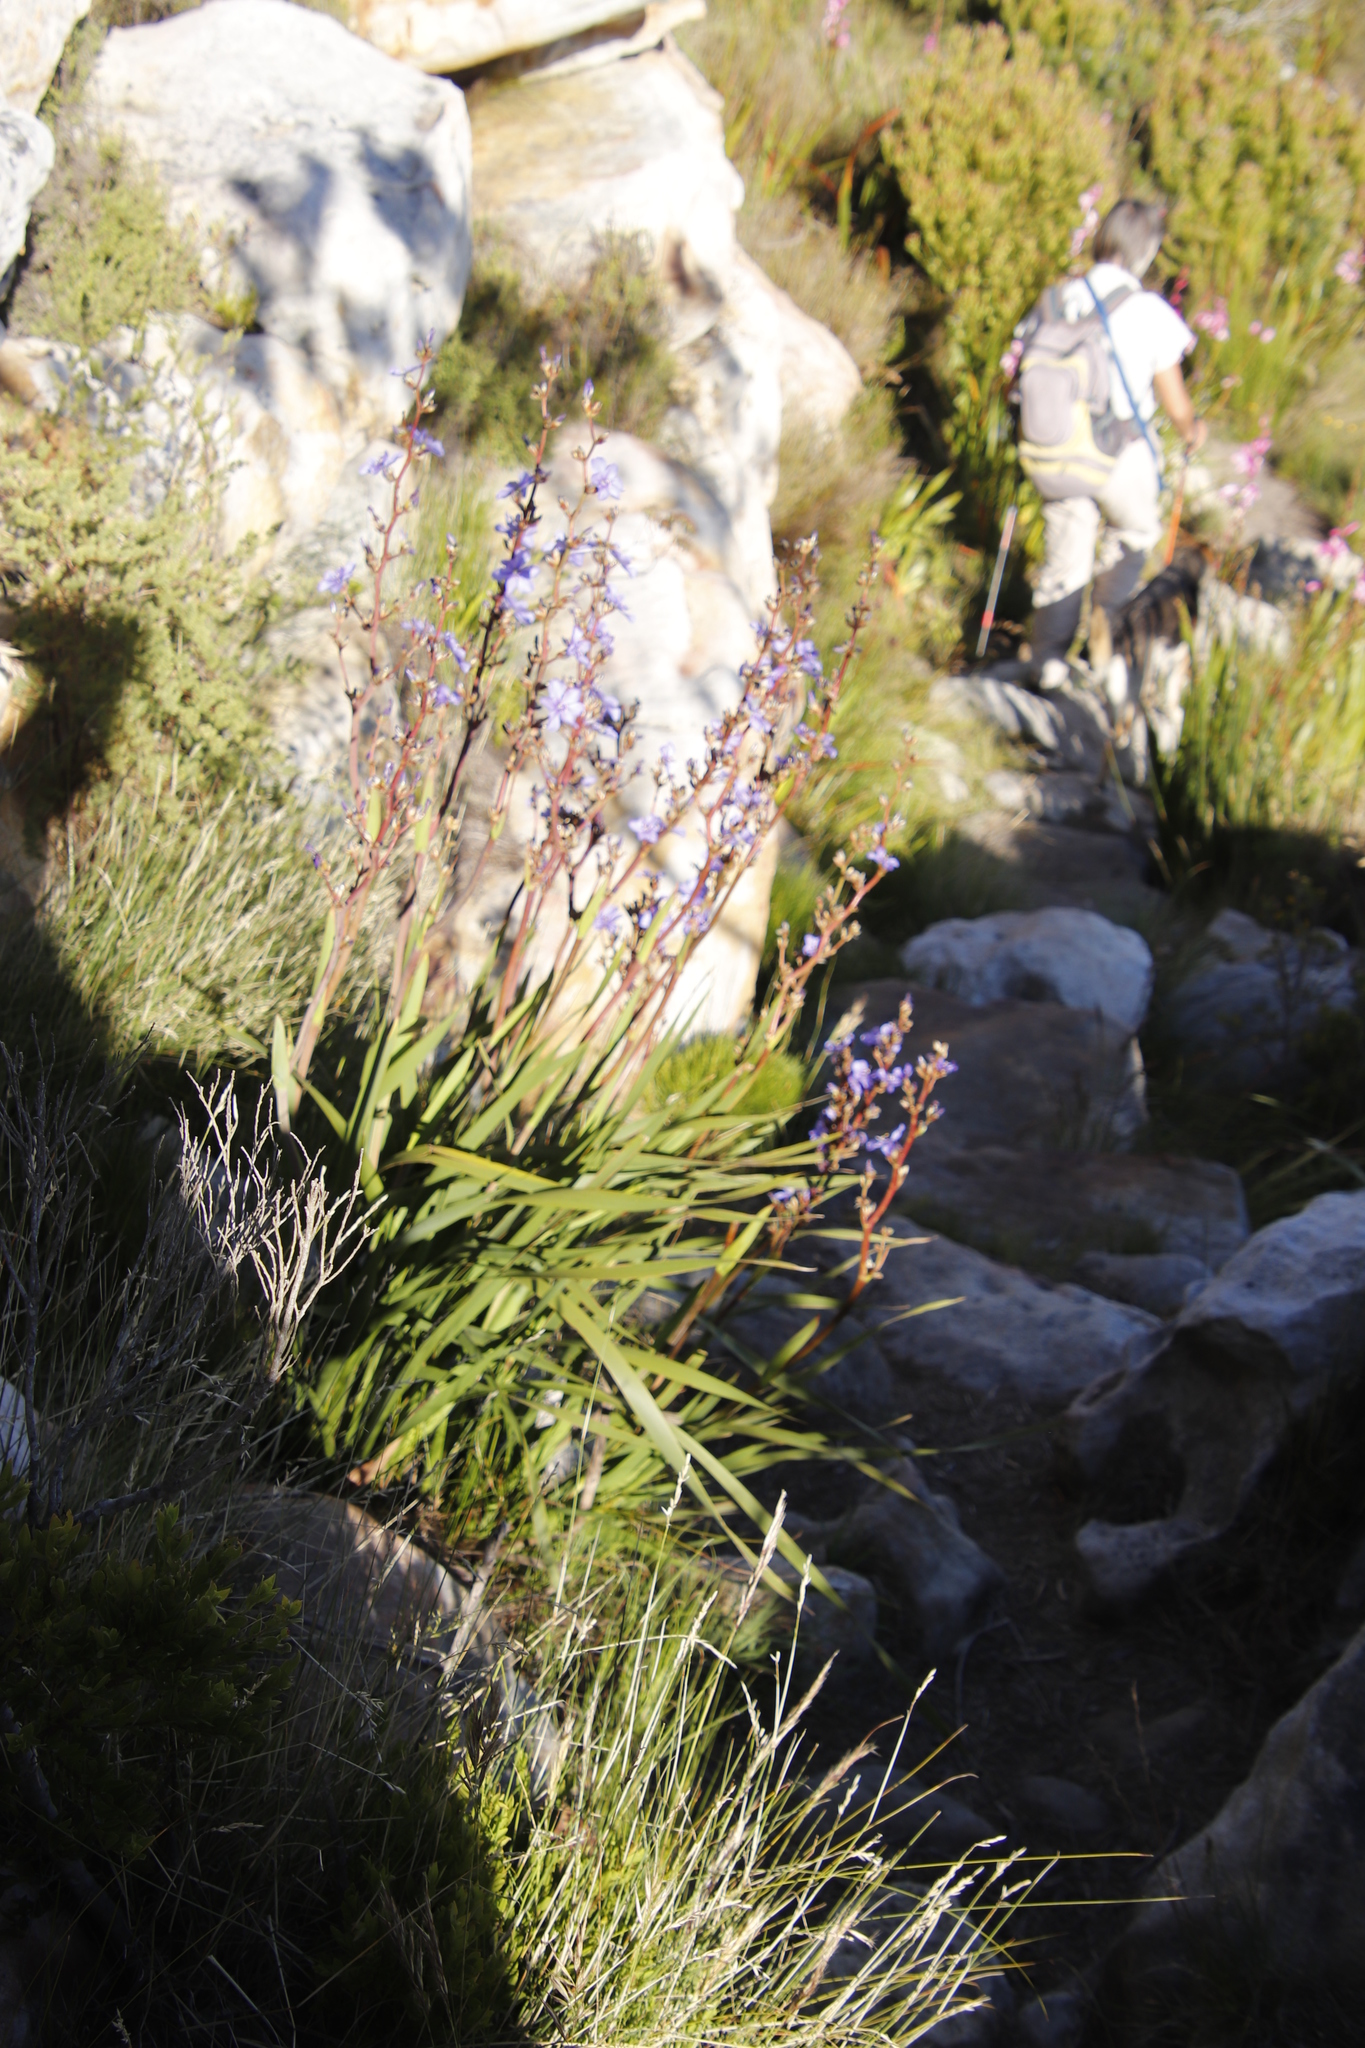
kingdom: Plantae
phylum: Tracheophyta
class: Liliopsida
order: Asparagales
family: Iridaceae
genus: Aristea
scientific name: Aristea bakeri
